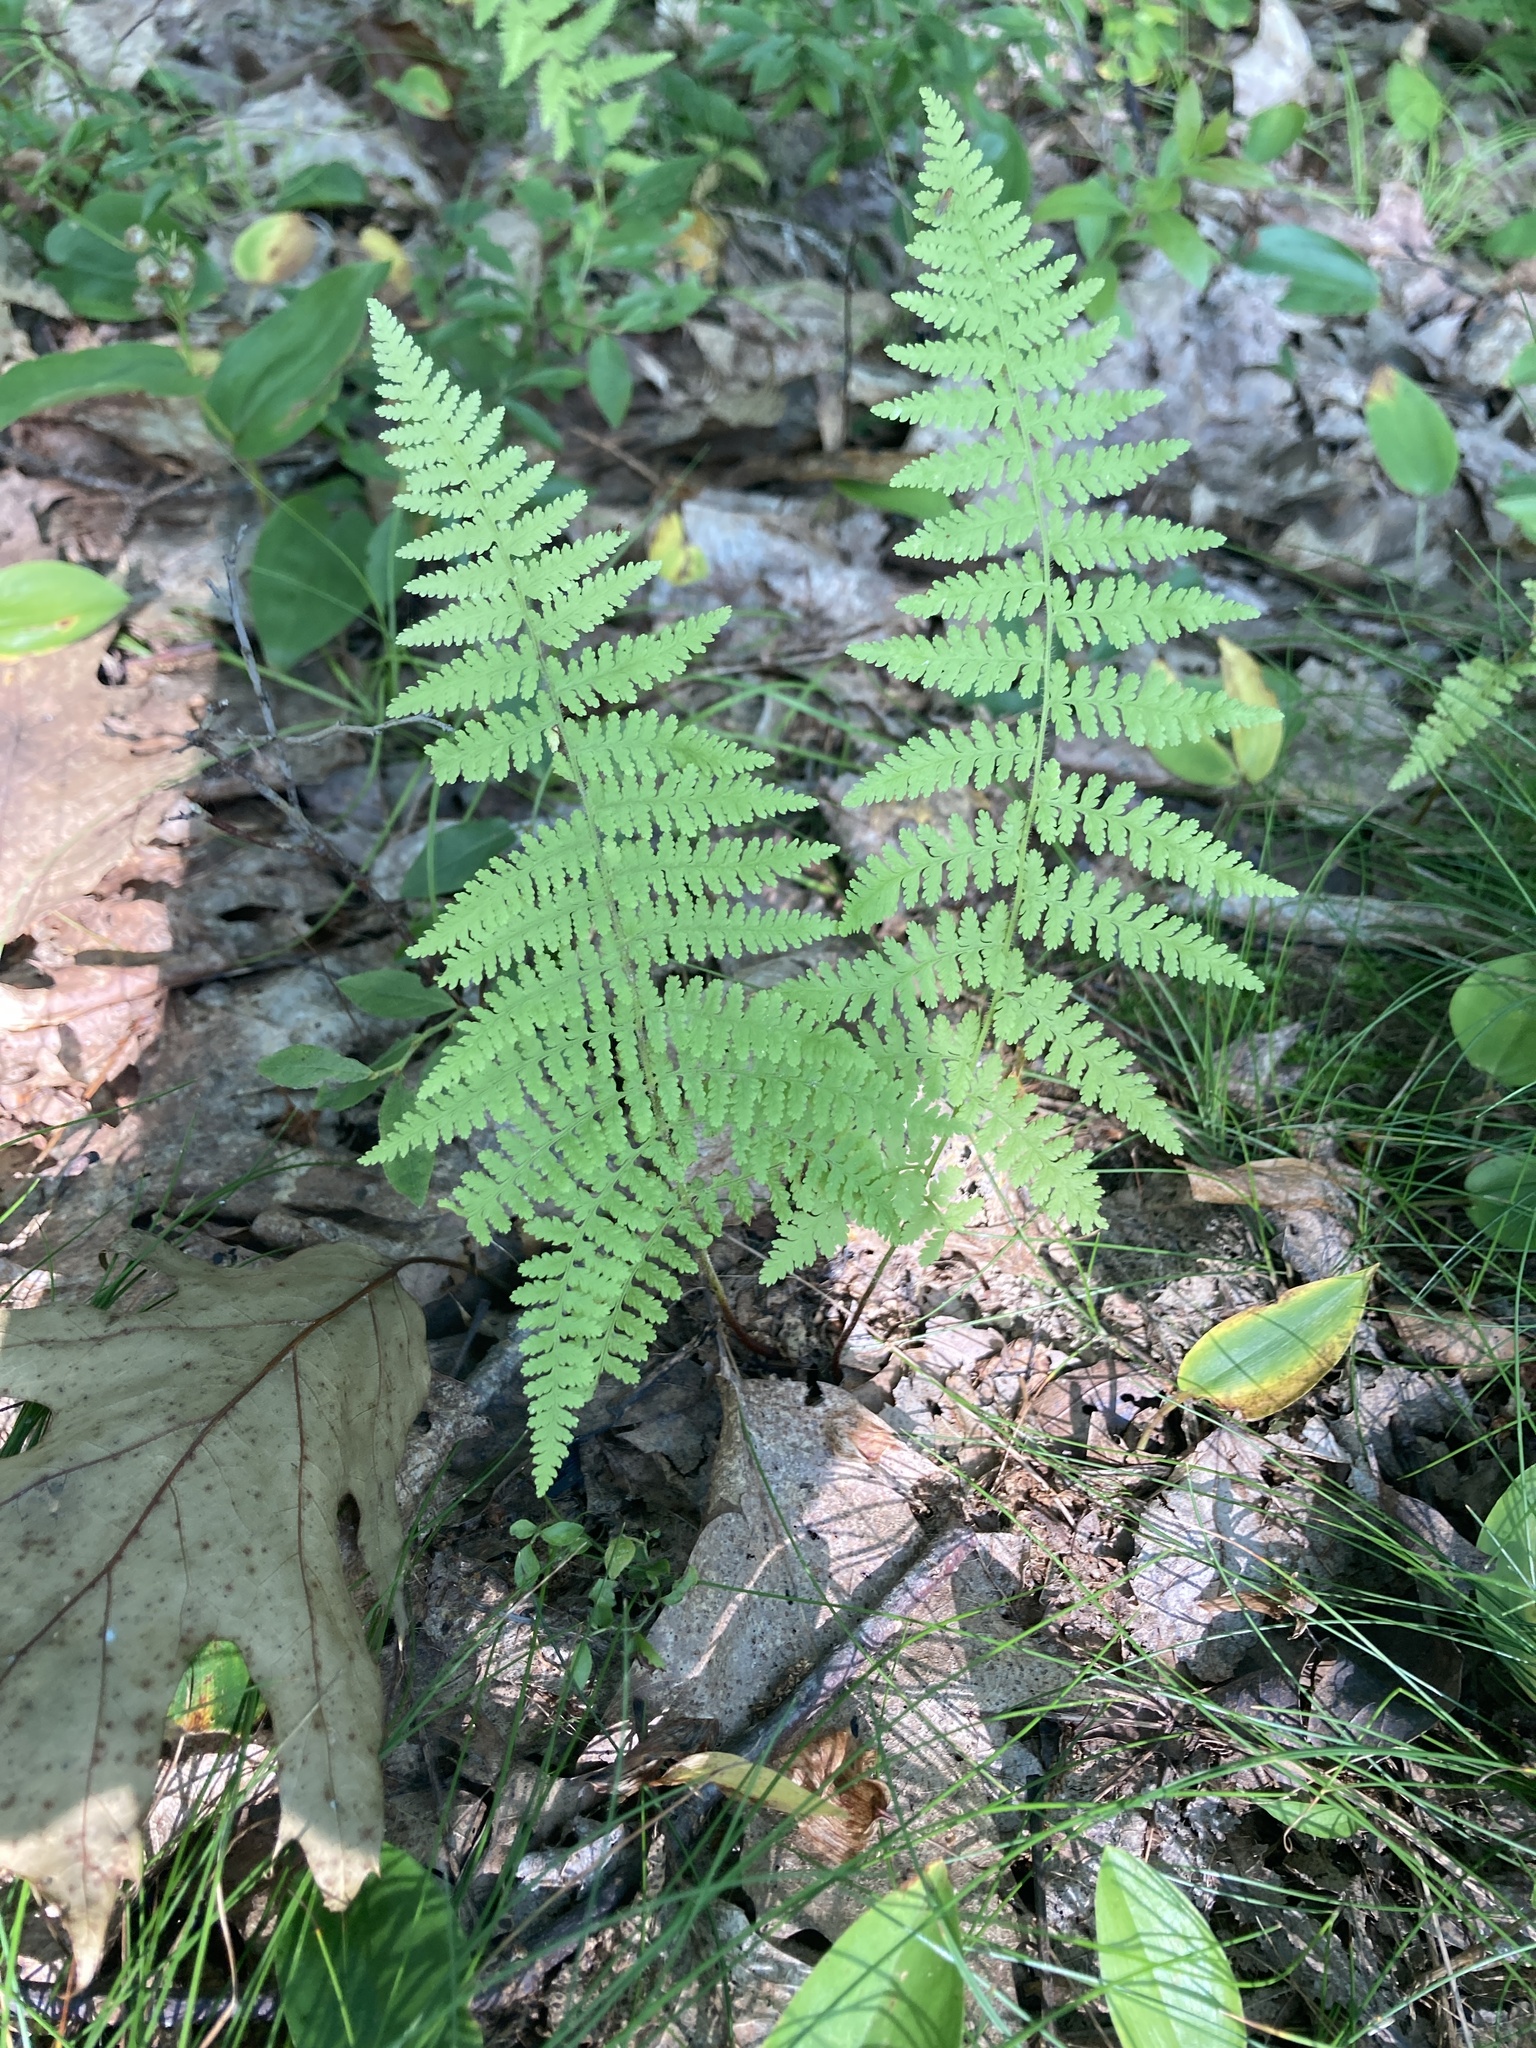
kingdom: Plantae
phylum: Tracheophyta
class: Polypodiopsida
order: Polypodiales
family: Dennstaedtiaceae
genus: Sitobolium
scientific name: Sitobolium punctilobum
